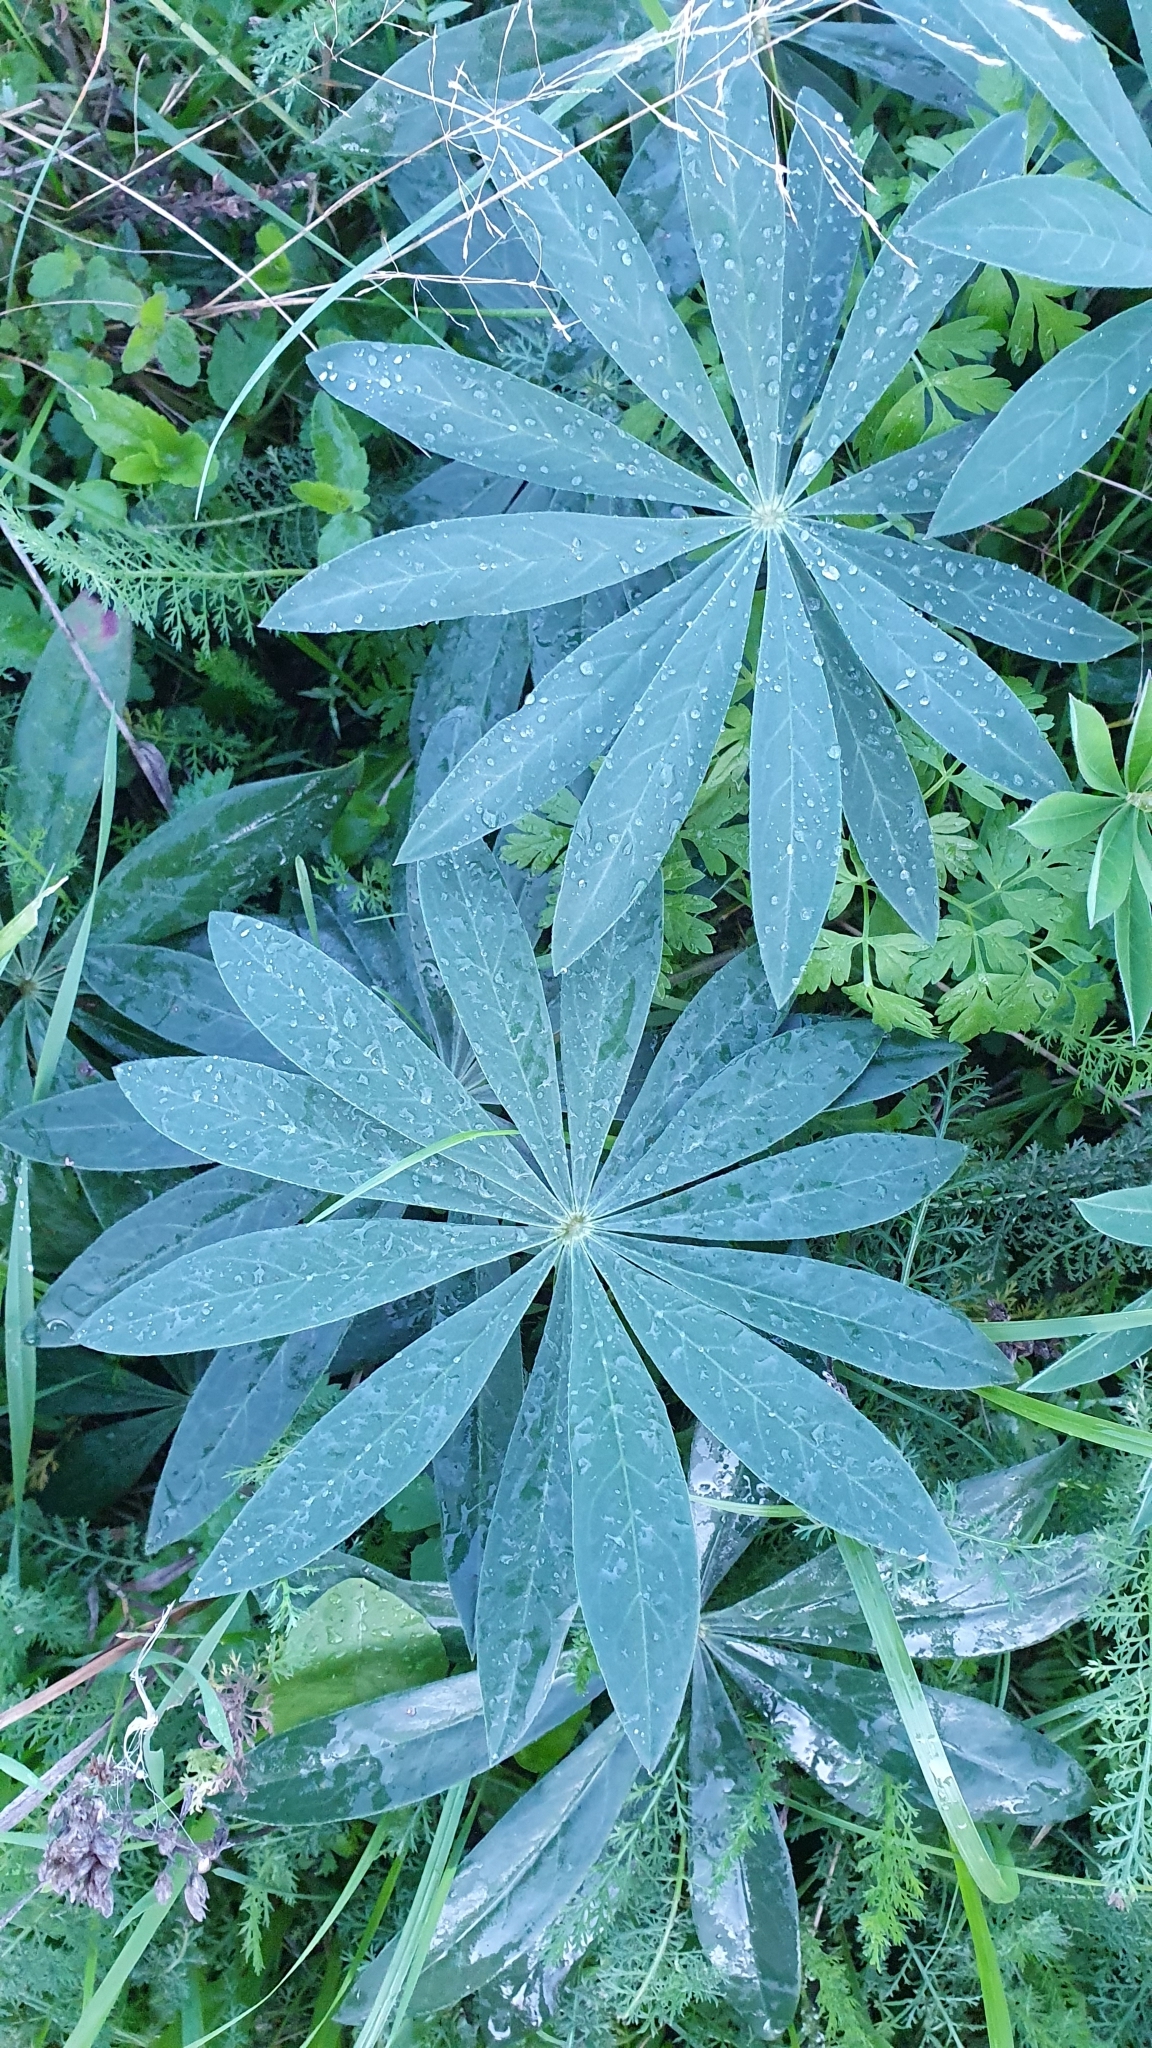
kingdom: Plantae
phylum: Tracheophyta
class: Magnoliopsida
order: Fabales
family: Fabaceae
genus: Lupinus
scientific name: Lupinus polyphyllus
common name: Garden lupin
